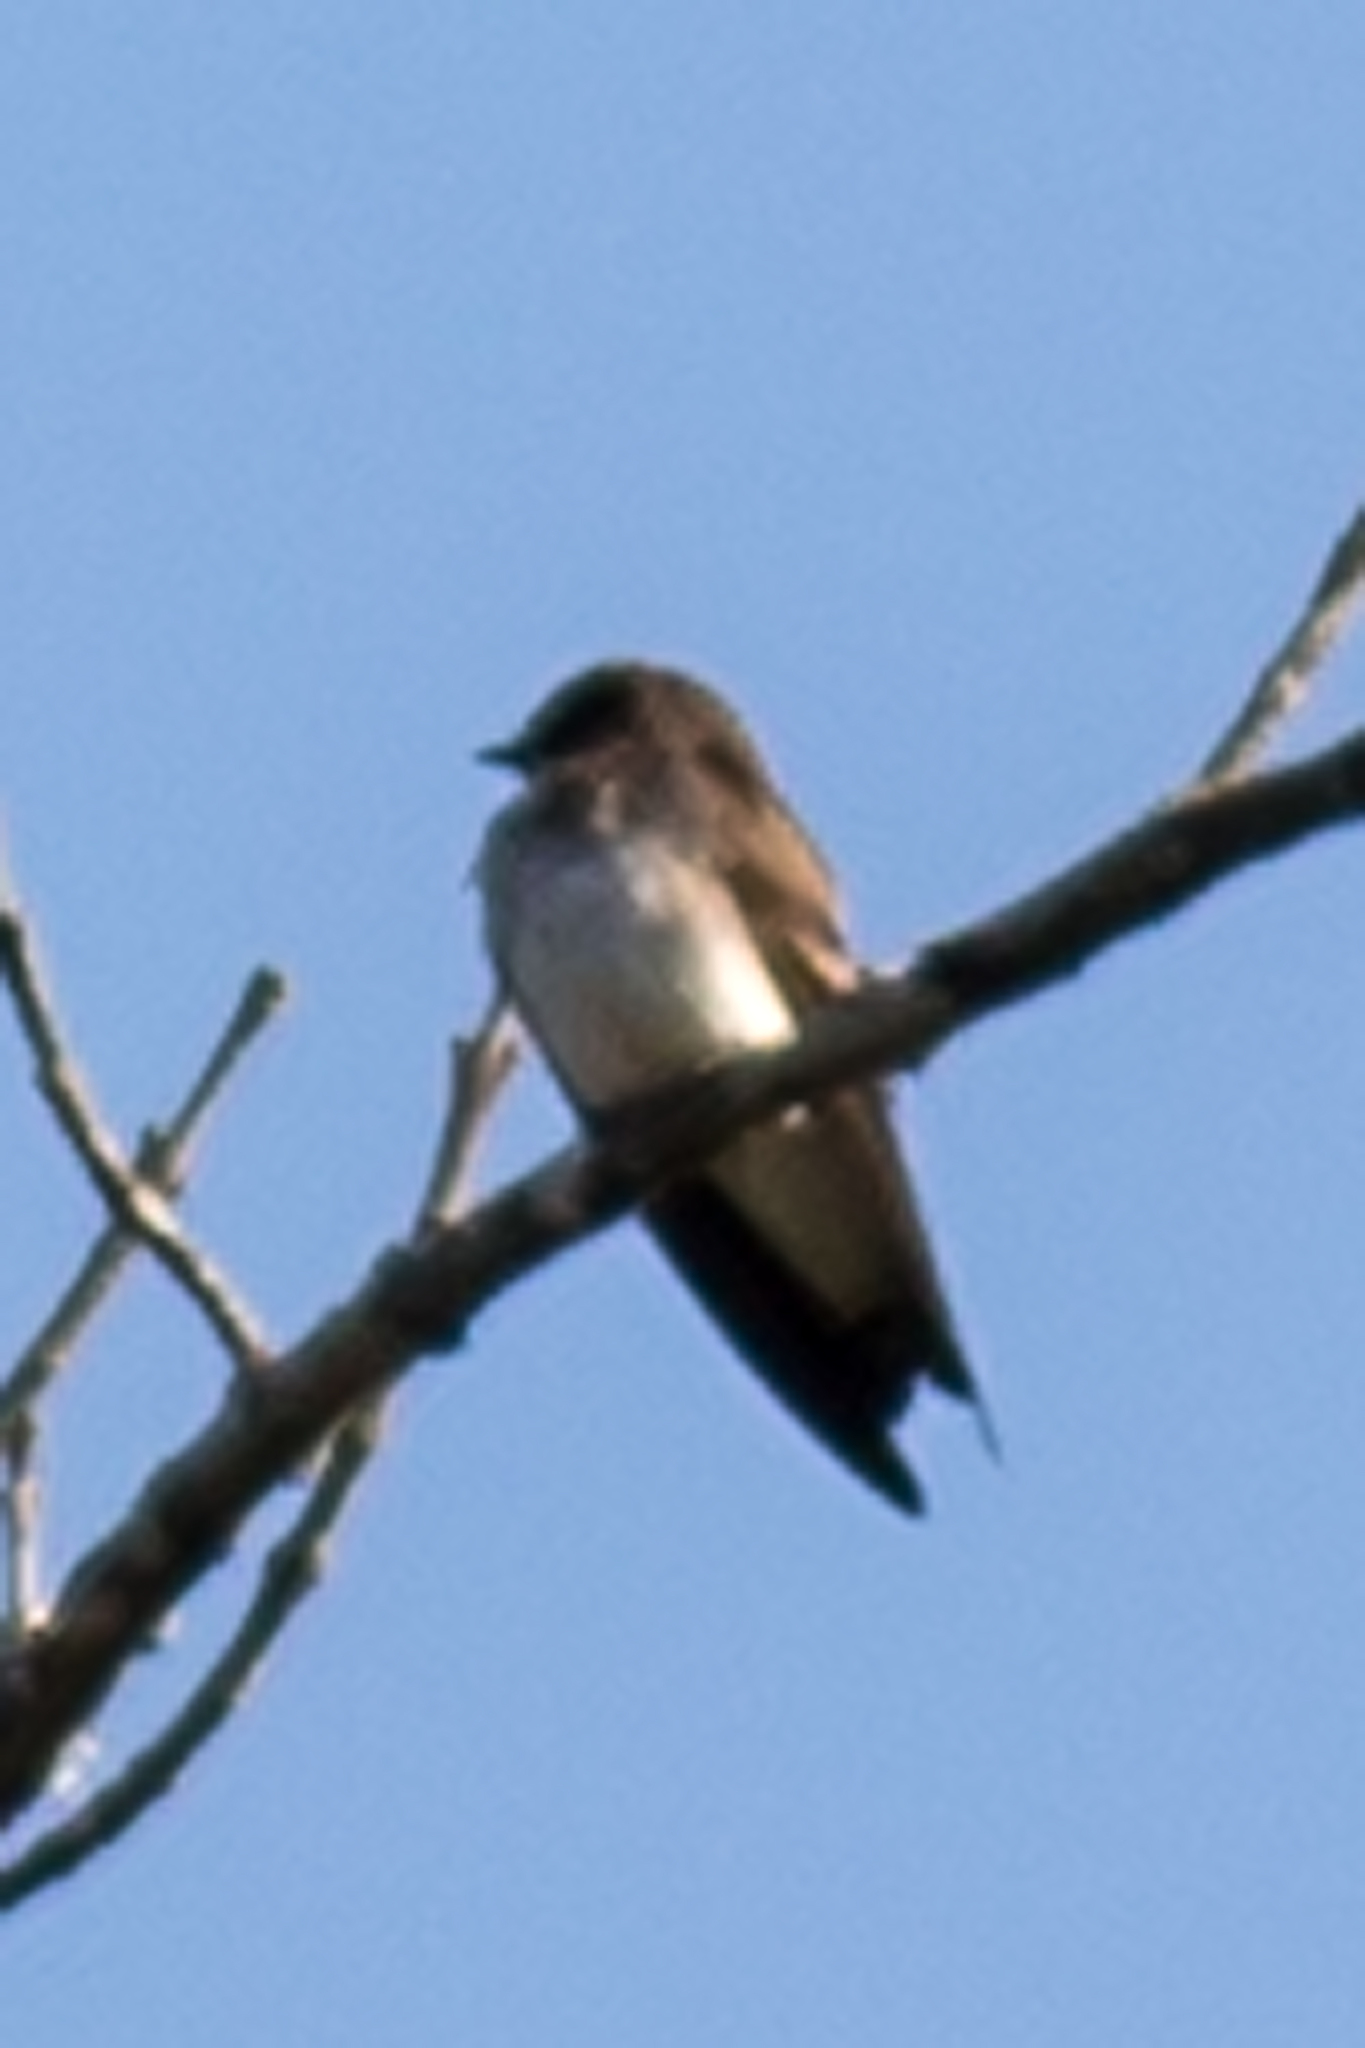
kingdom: Animalia
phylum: Chordata
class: Aves
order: Passeriformes
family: Hirundinidae
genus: Stelgidopteryx
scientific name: Stelgidopteryx serripennis
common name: Northern rough-winged swallow
